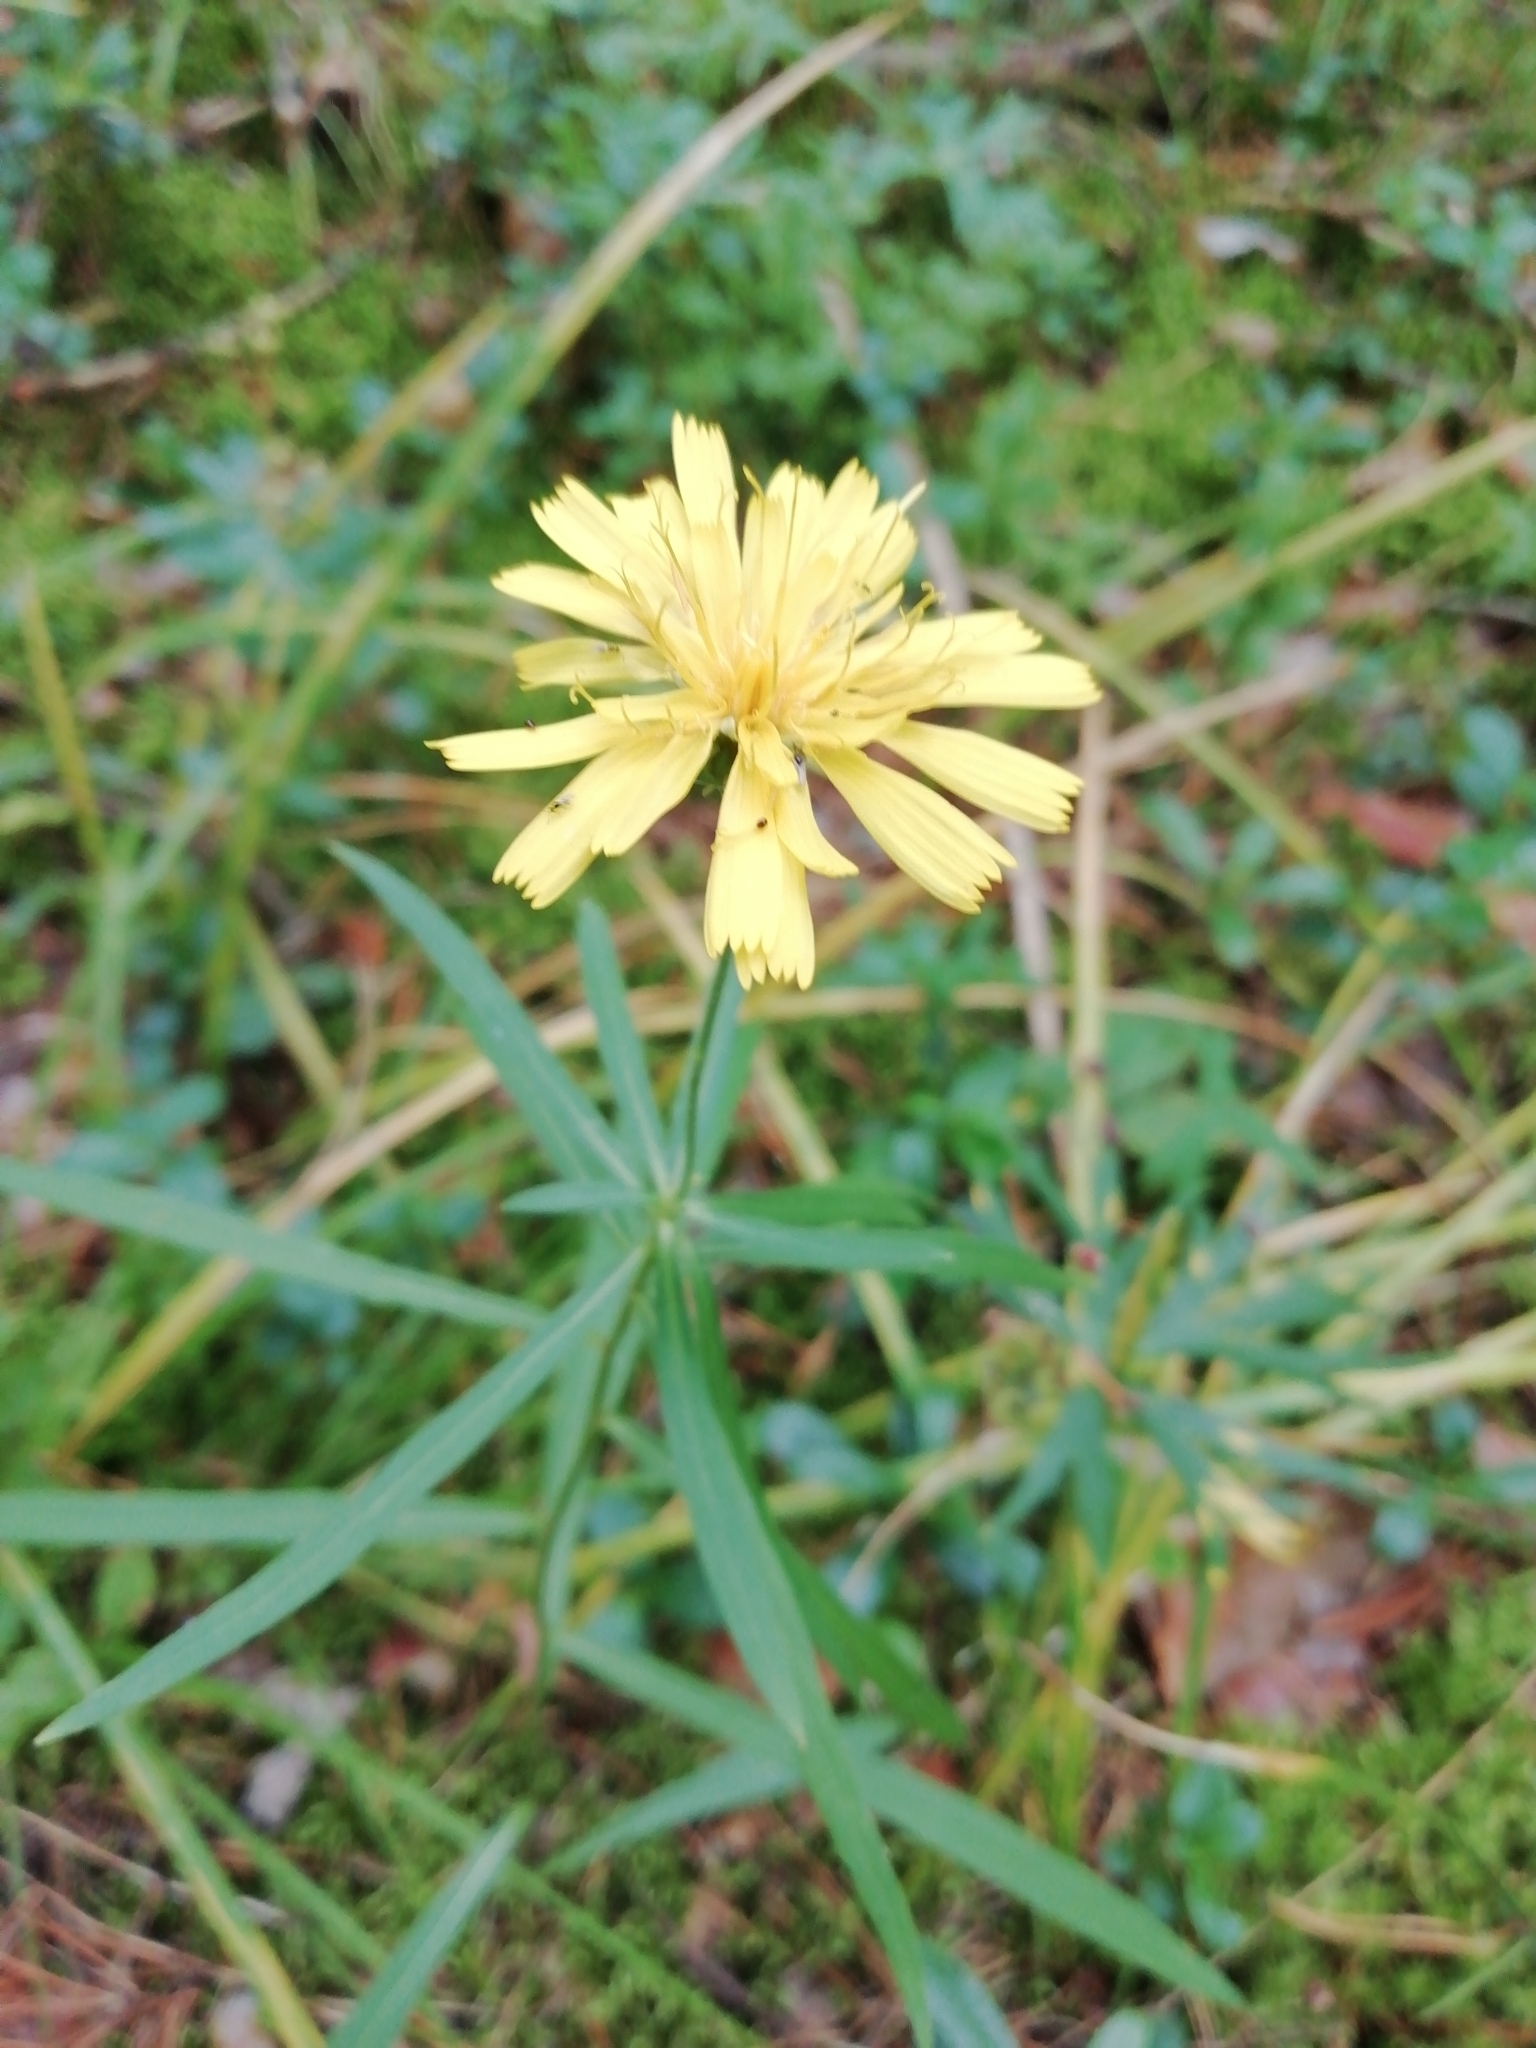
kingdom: Plantae
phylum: Tracheophyta
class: Magnoliopsida
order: Asterales
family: Asteraceae
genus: Hieracium
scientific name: Hieracium umbellatum
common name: Northern hawkweed
